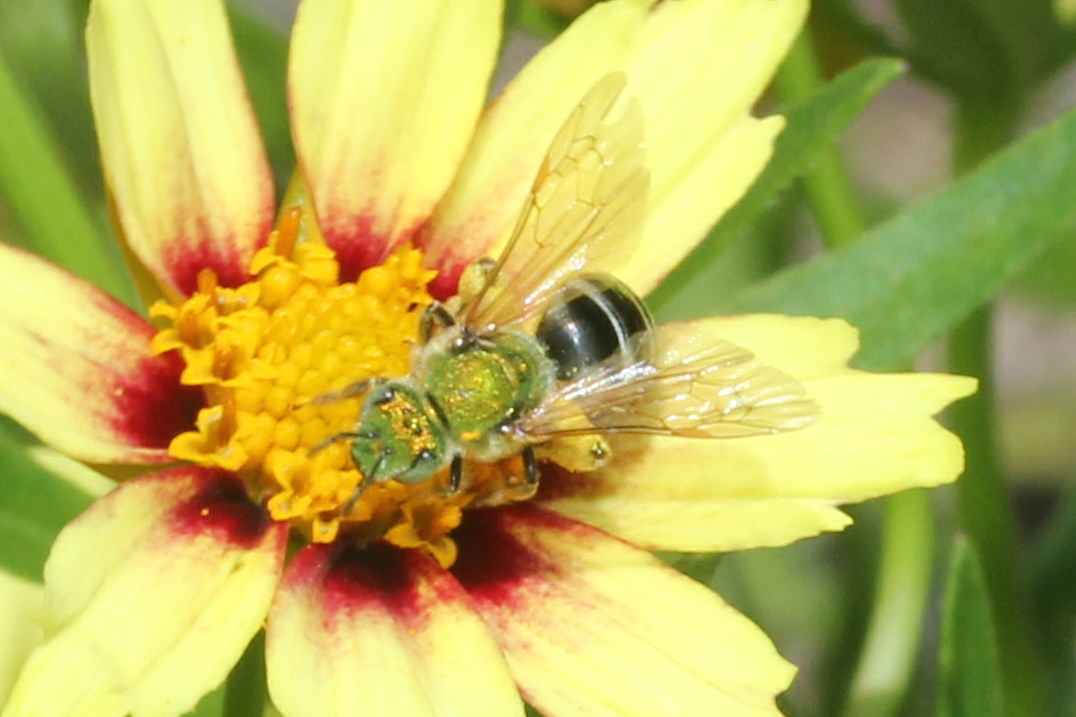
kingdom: Animalia
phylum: Arthropoda
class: Insecta
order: Hymenoptera
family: Halictidae
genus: Agapostemon
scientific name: Agapostemon virescens
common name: Bicolored striped sweat bee
